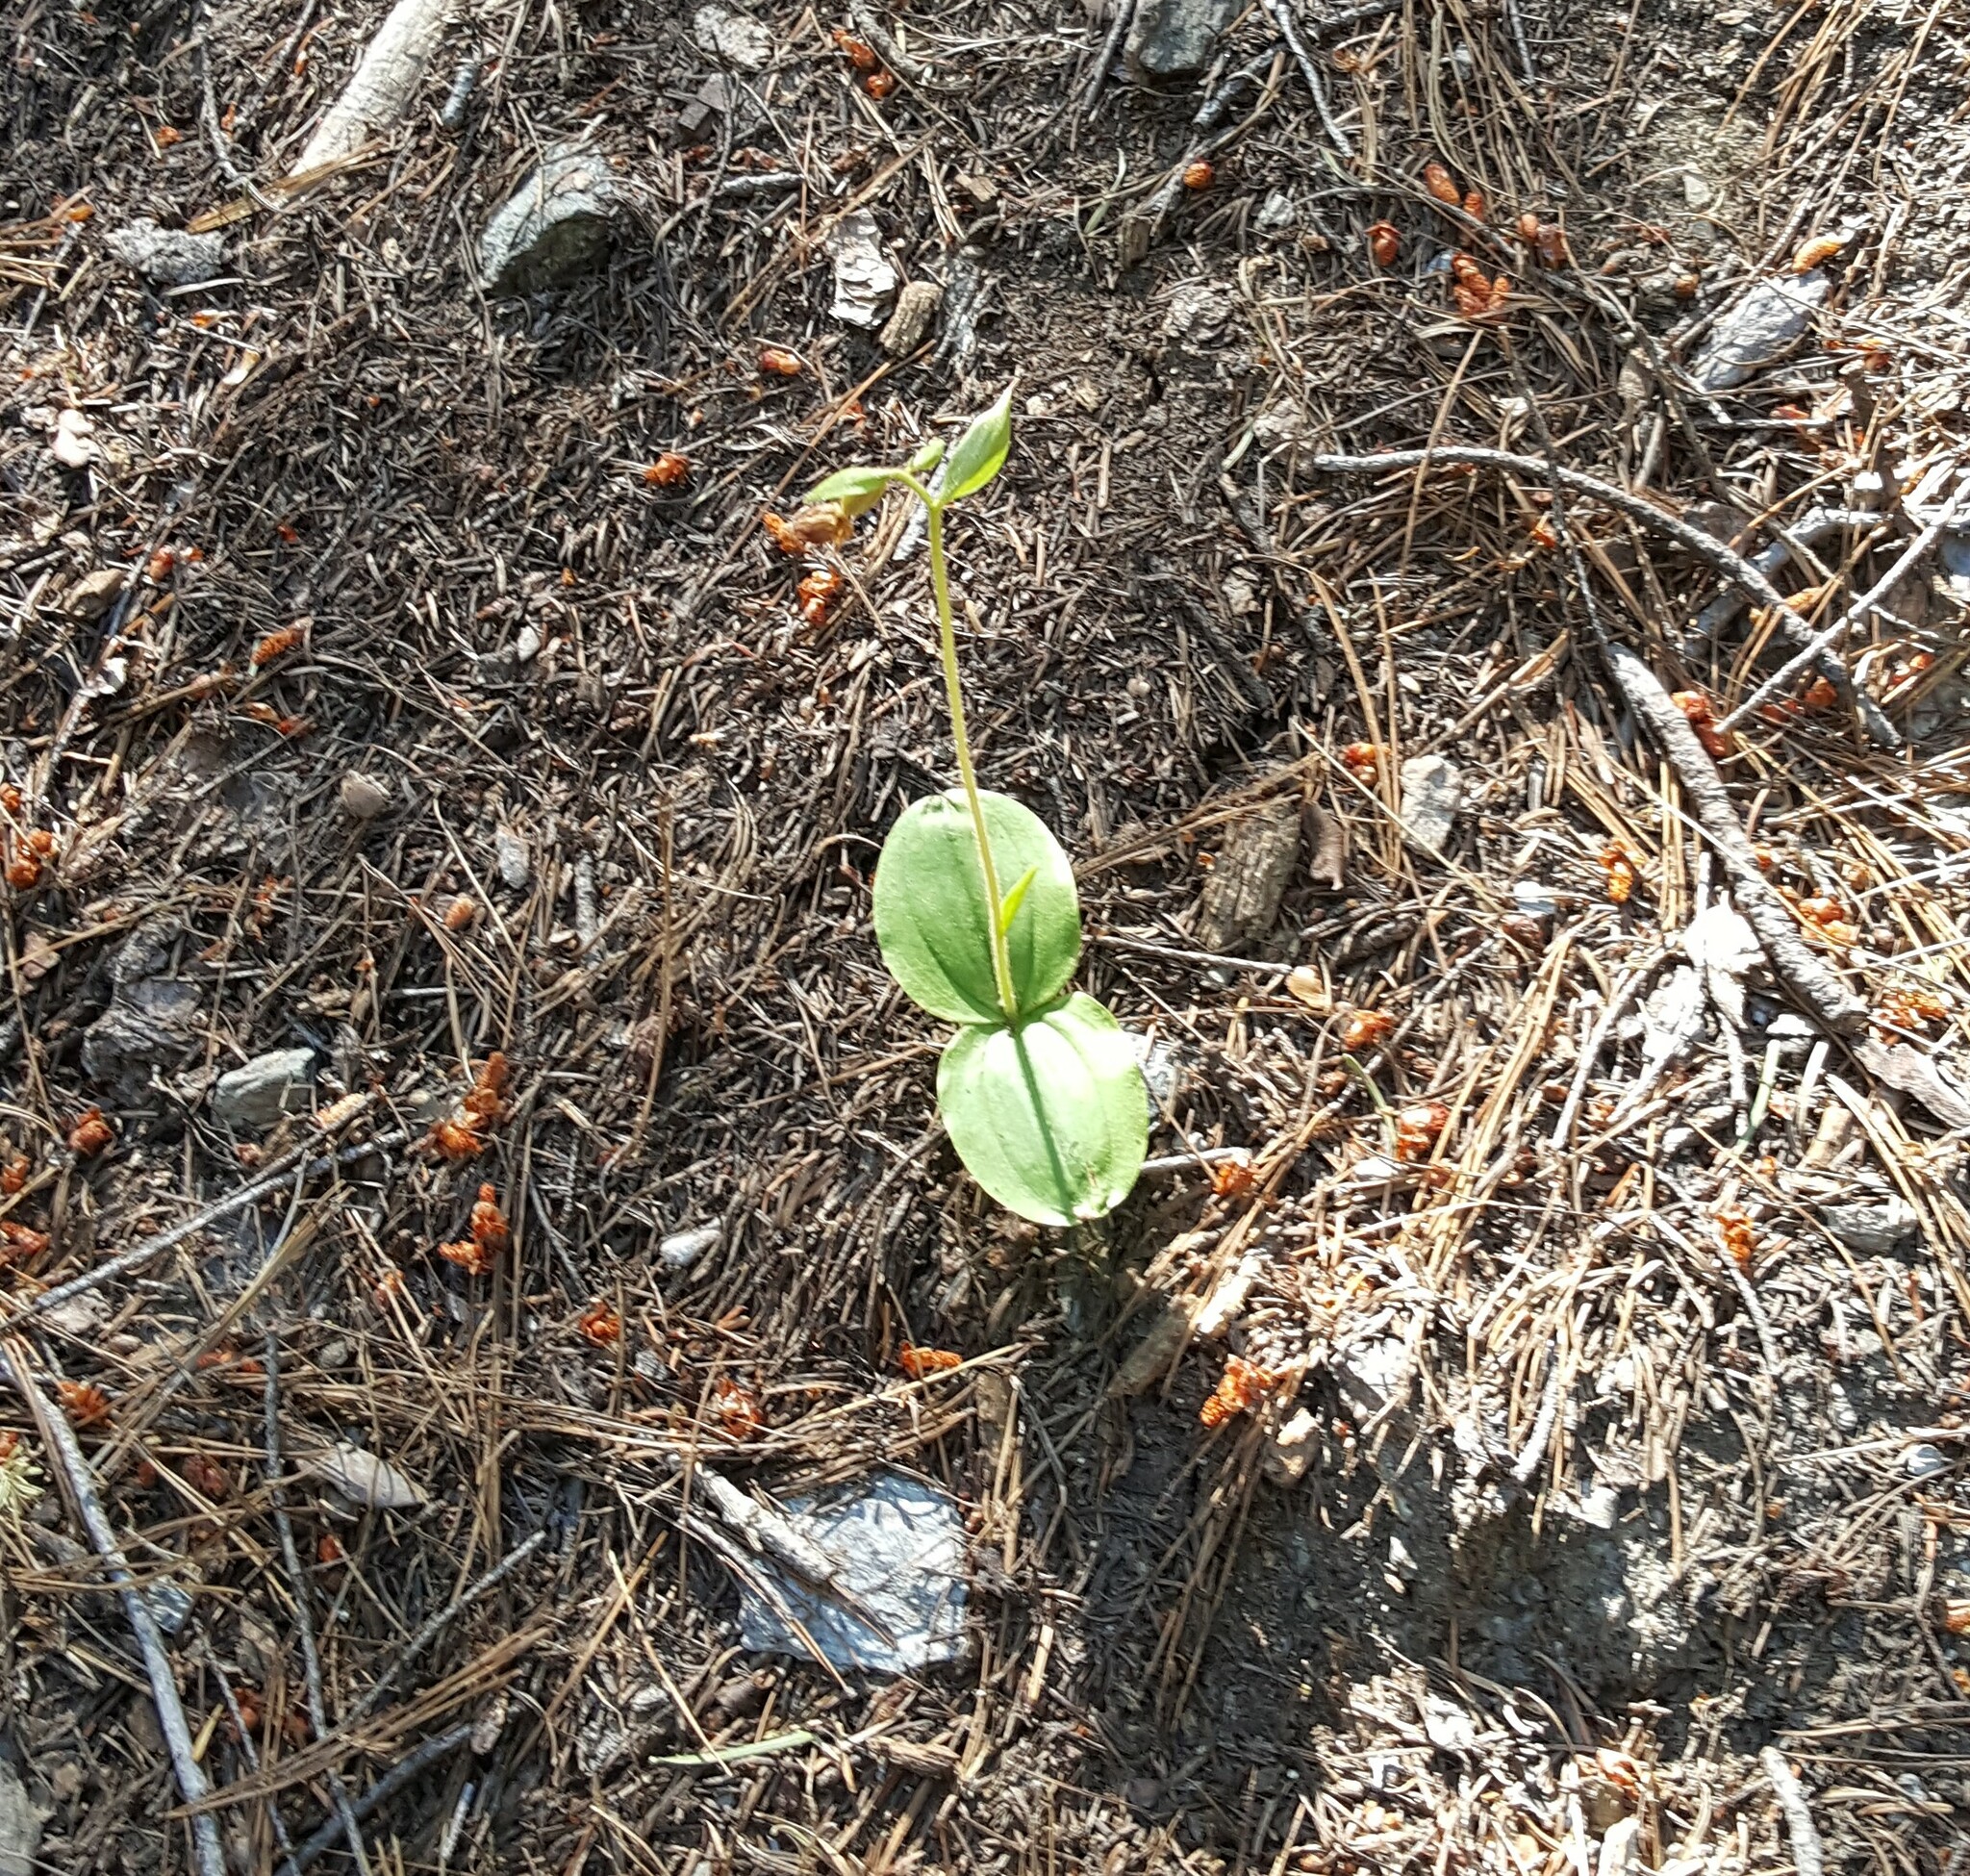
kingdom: Plantae
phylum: Tracheophyta
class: Liliopsida
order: Asparagales
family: Orchidaceae
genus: Cypripedium
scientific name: Cypripedium fasciculatum
